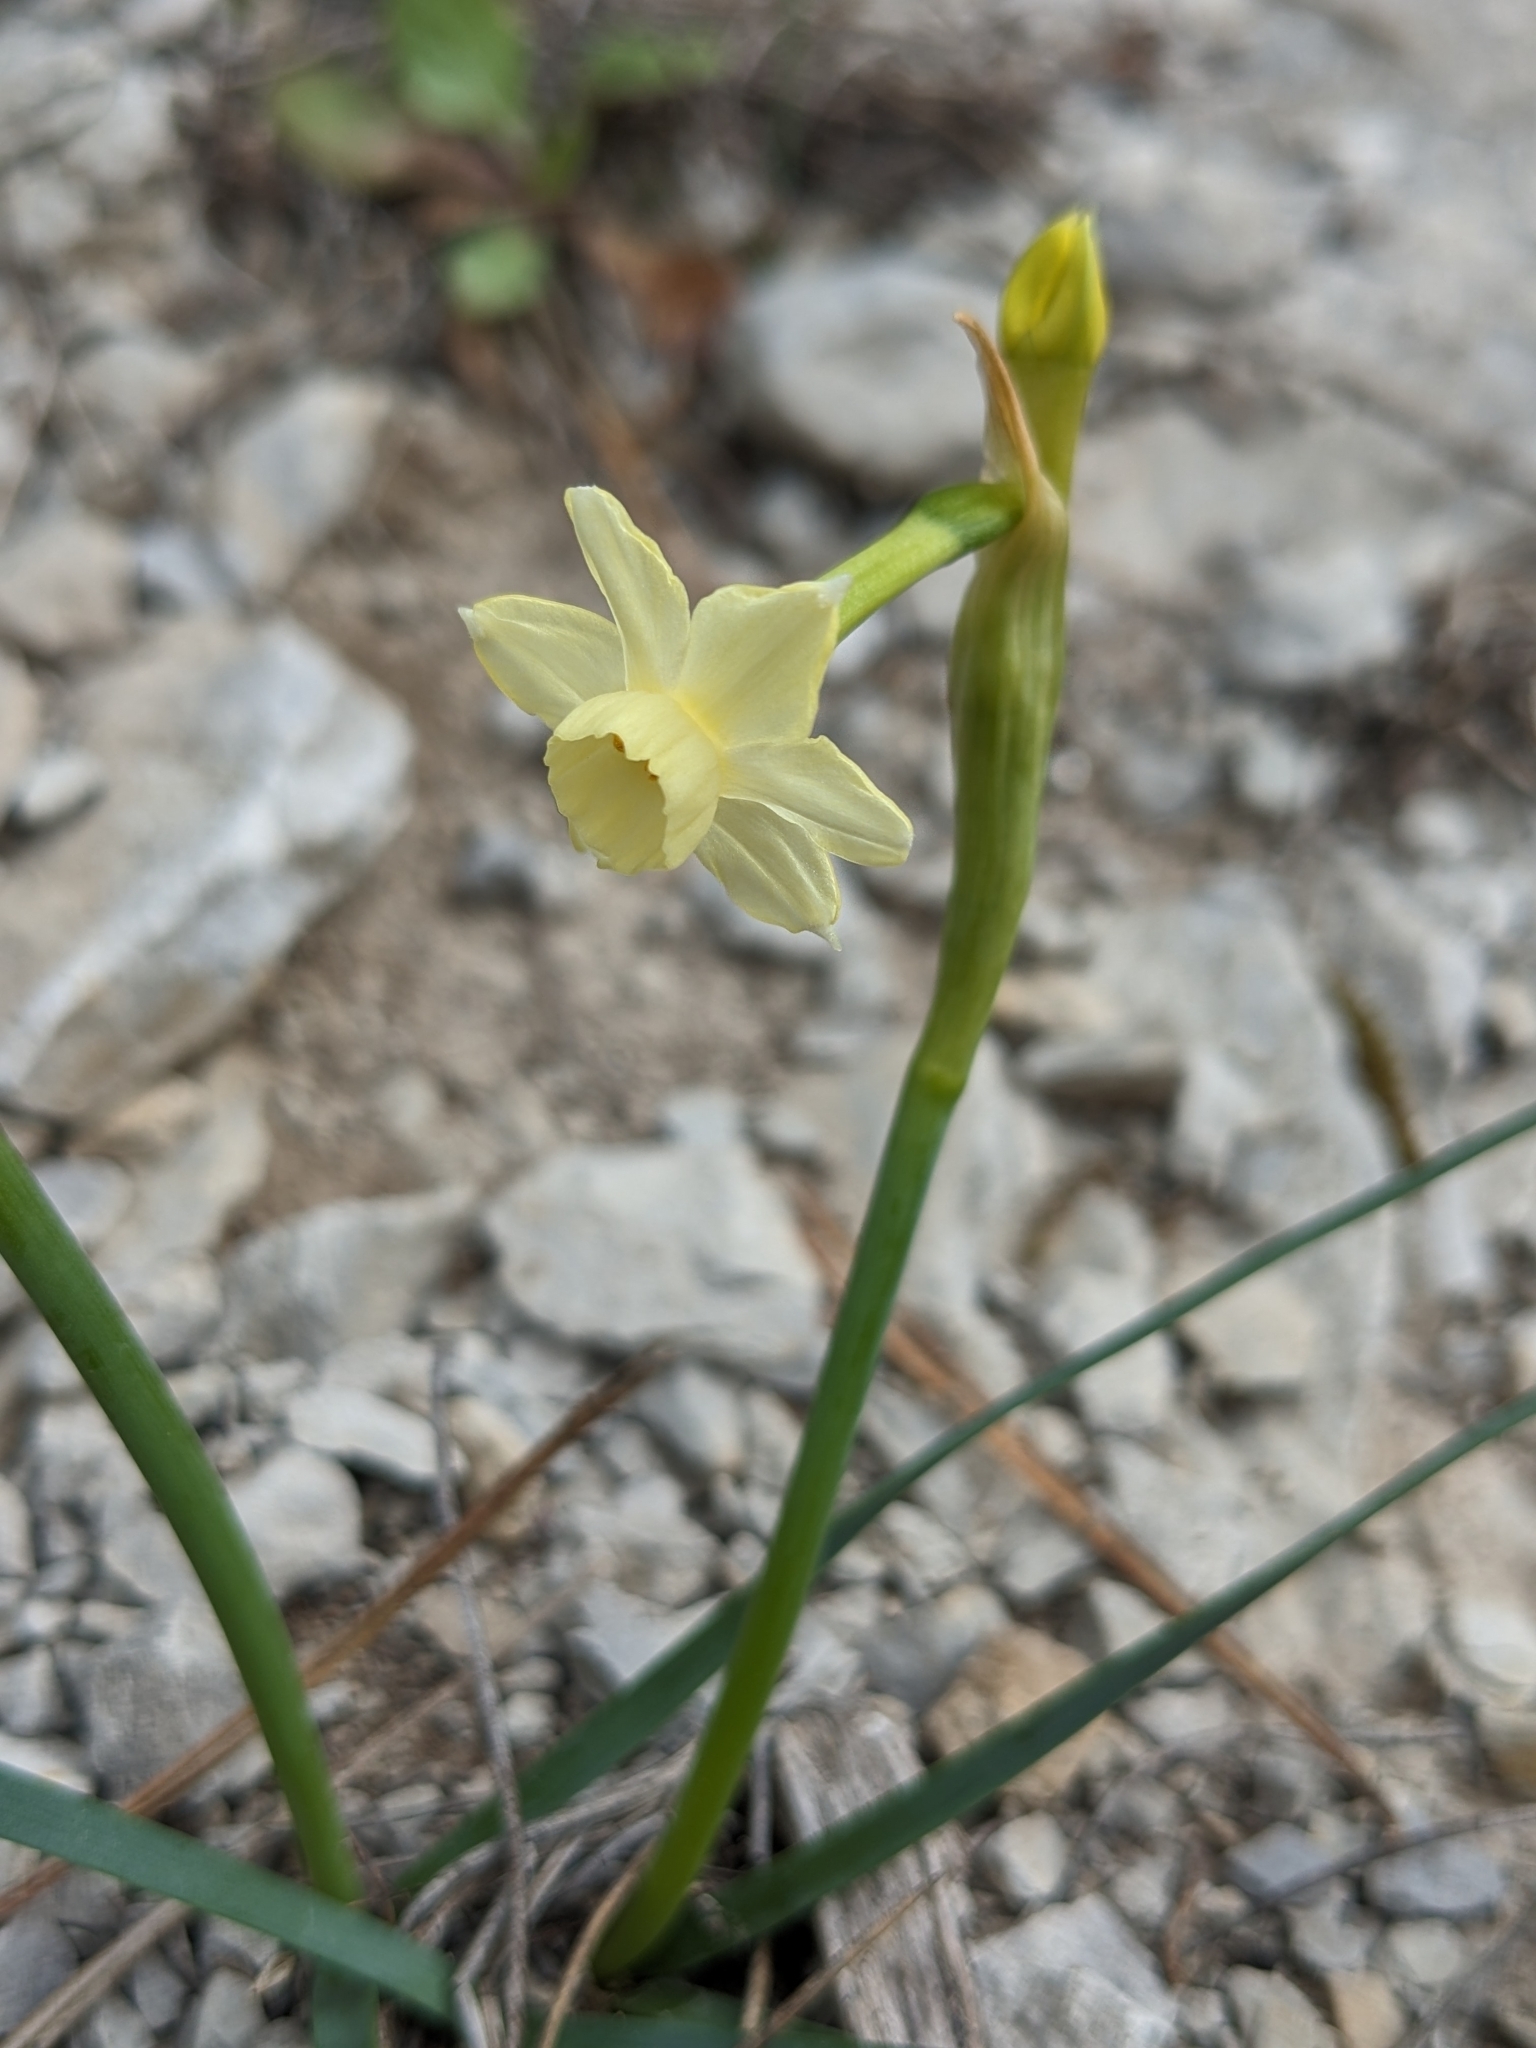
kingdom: Plantae
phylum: Tracheophyta
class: Liliopsida
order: Asparagales
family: Amaryllidaceae
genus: Narcissus
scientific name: Narcissus dubius
